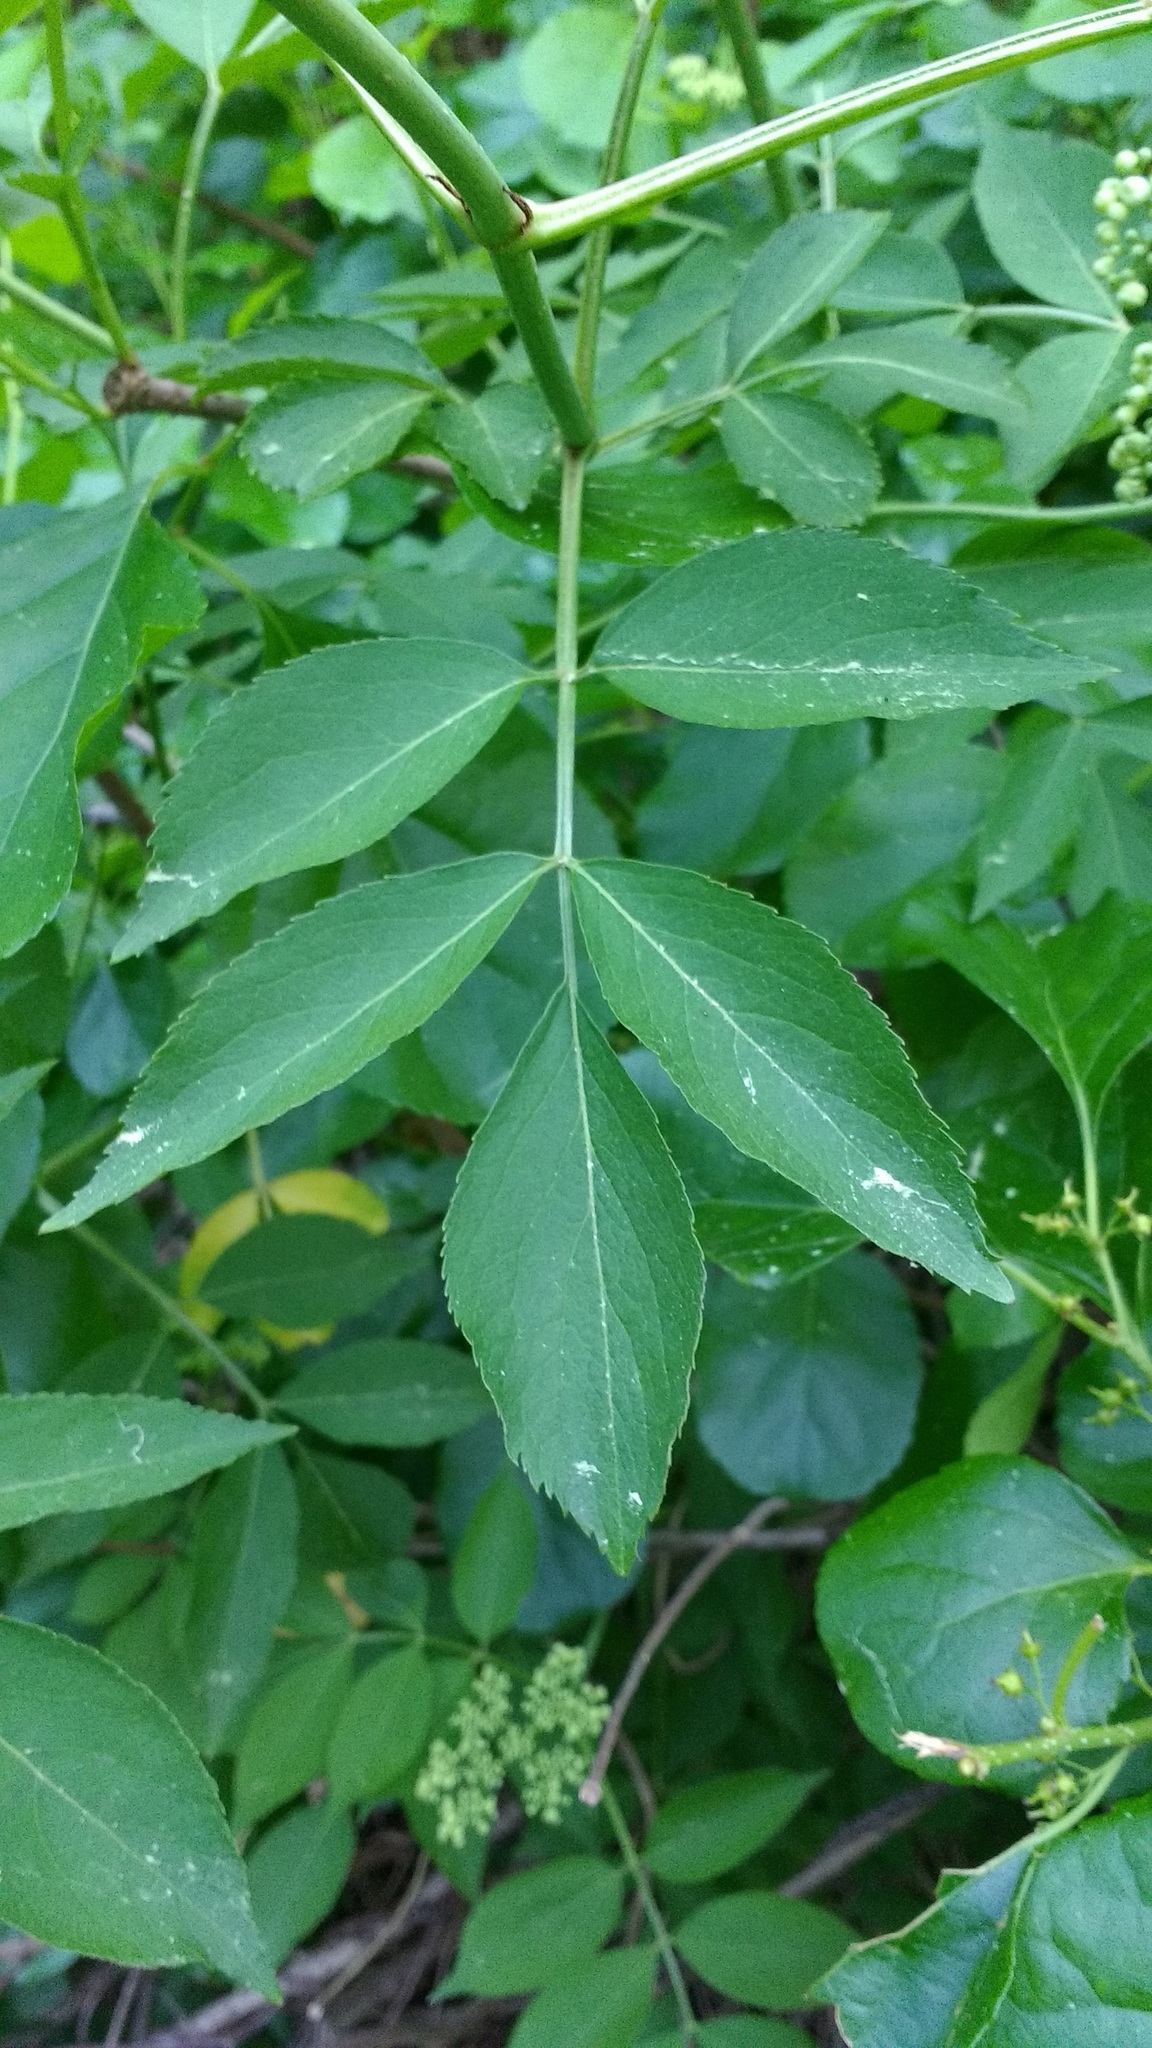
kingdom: Plantae
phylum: Tracheophyta
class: Magnoliopsida
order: Dipsacales
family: Viburnaceae
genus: Sambucus
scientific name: Sambucus canadensis
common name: American elder
